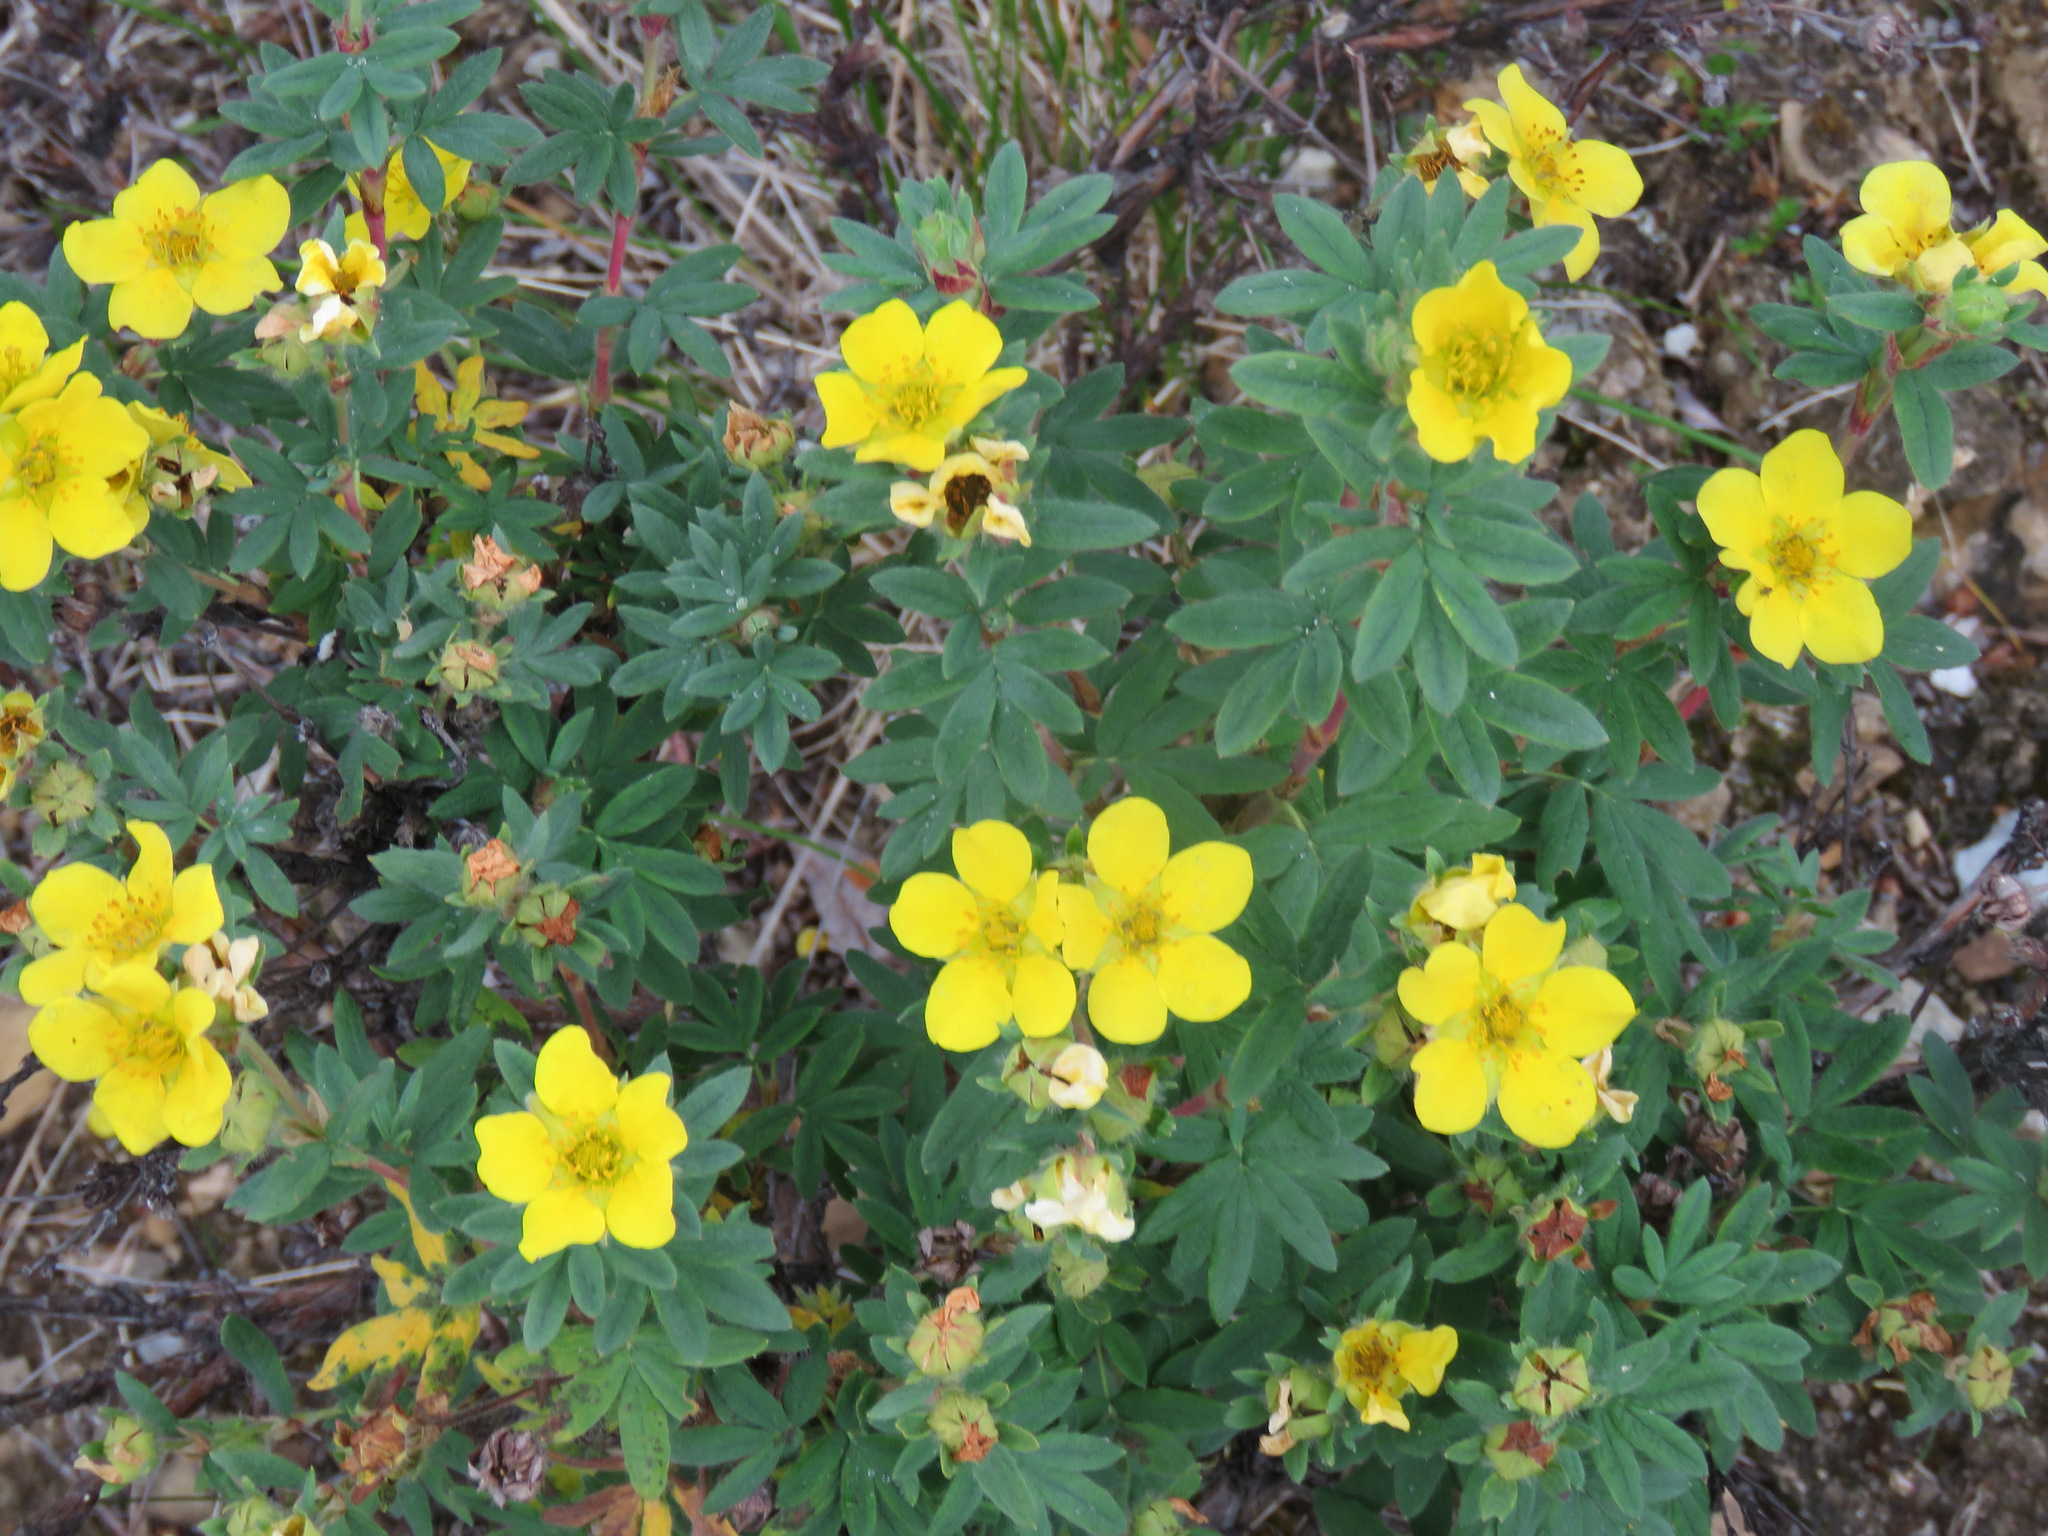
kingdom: Plantae
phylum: Tracheophyta
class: Magnoliopsida
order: Rosales
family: Rosaceae
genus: Dasiphora
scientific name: Dasiphora fruticosa
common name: Shrubby cinquefoil
